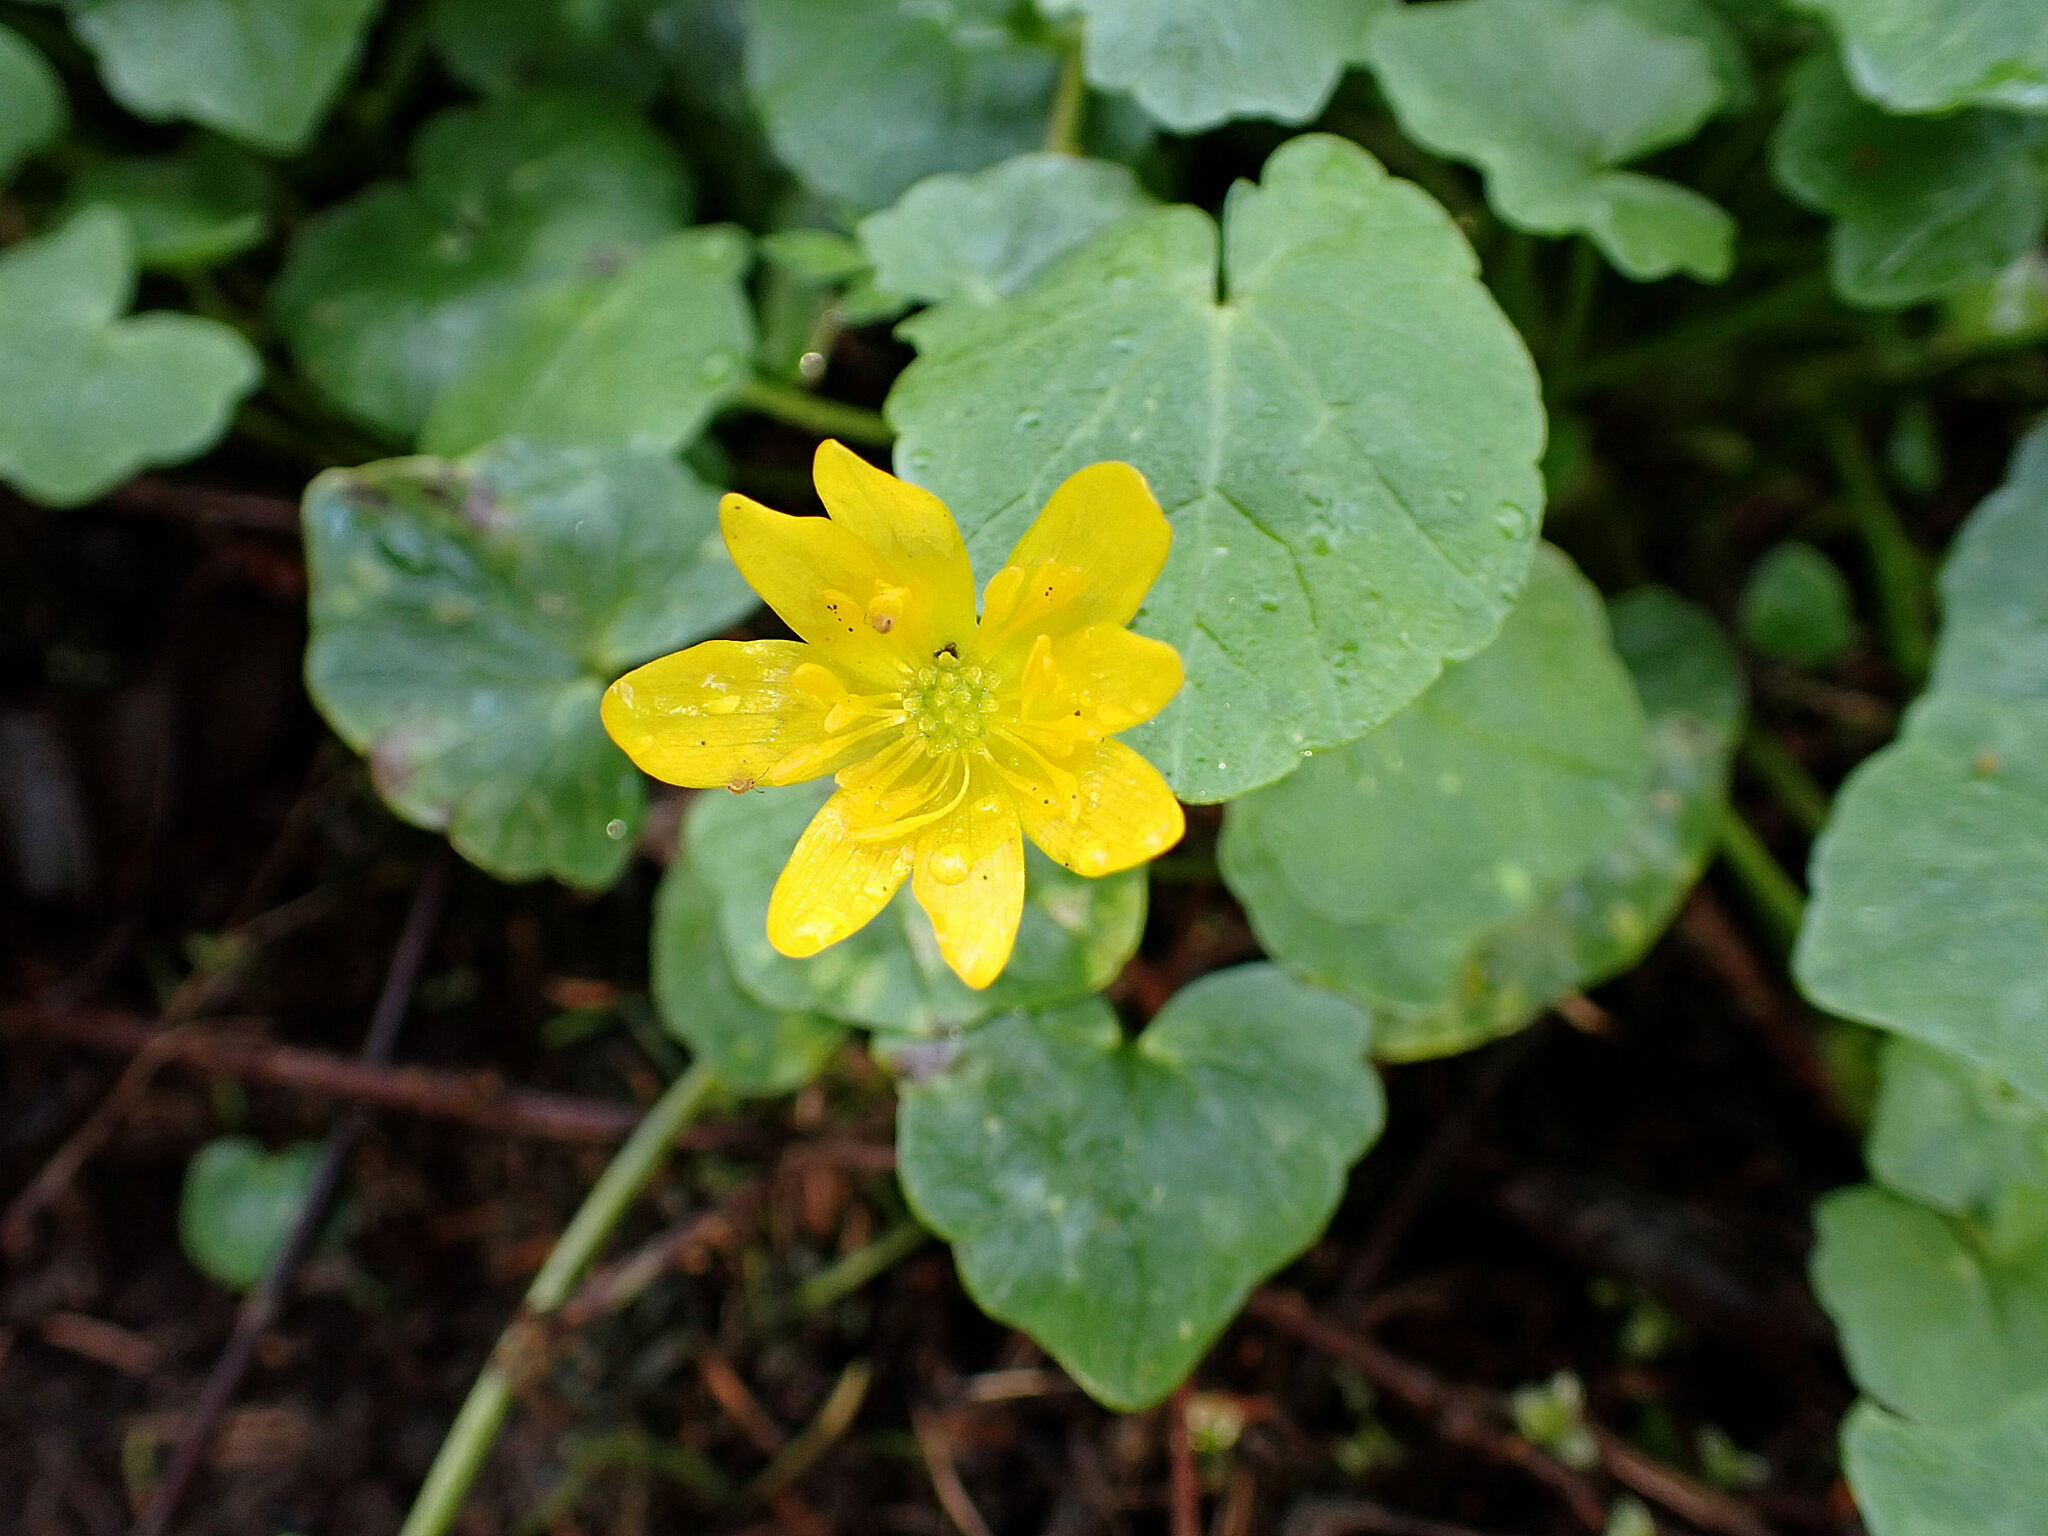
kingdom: Plantae
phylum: Tracheophyta
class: Magnoliopsida
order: Ranunculales
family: Ranunculaceae
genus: Ficaria
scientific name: Ficaria verna
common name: Lesser celandine
